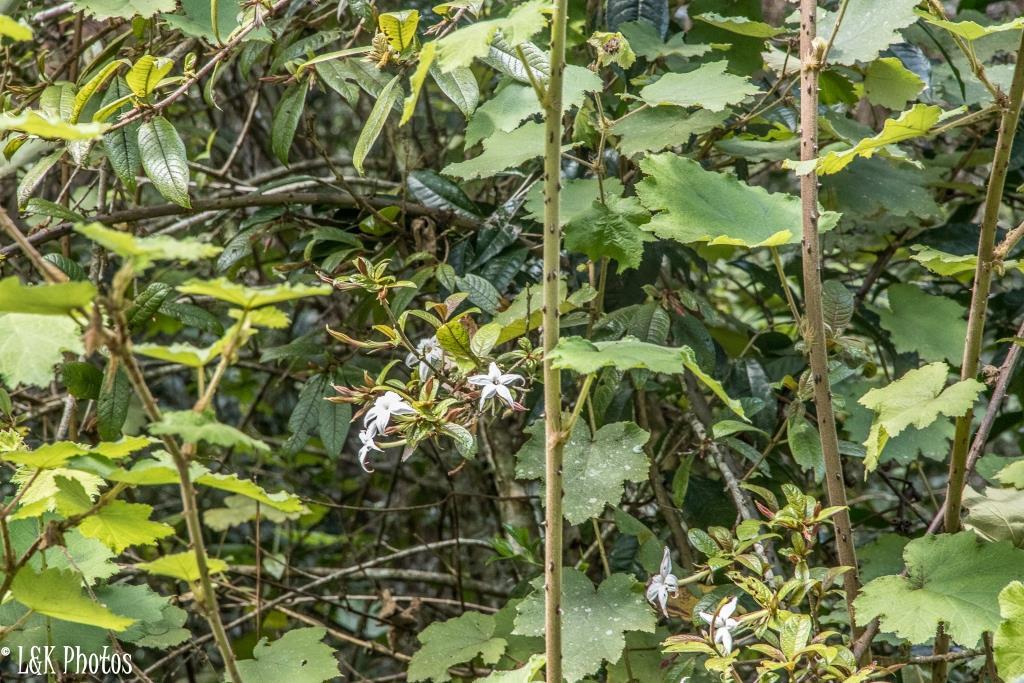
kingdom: Plantae
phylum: Tracheophyta
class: Magnoliopsida
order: Gentianales
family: Rubiaceae
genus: Bremeria
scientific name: Bremeria humblotii
